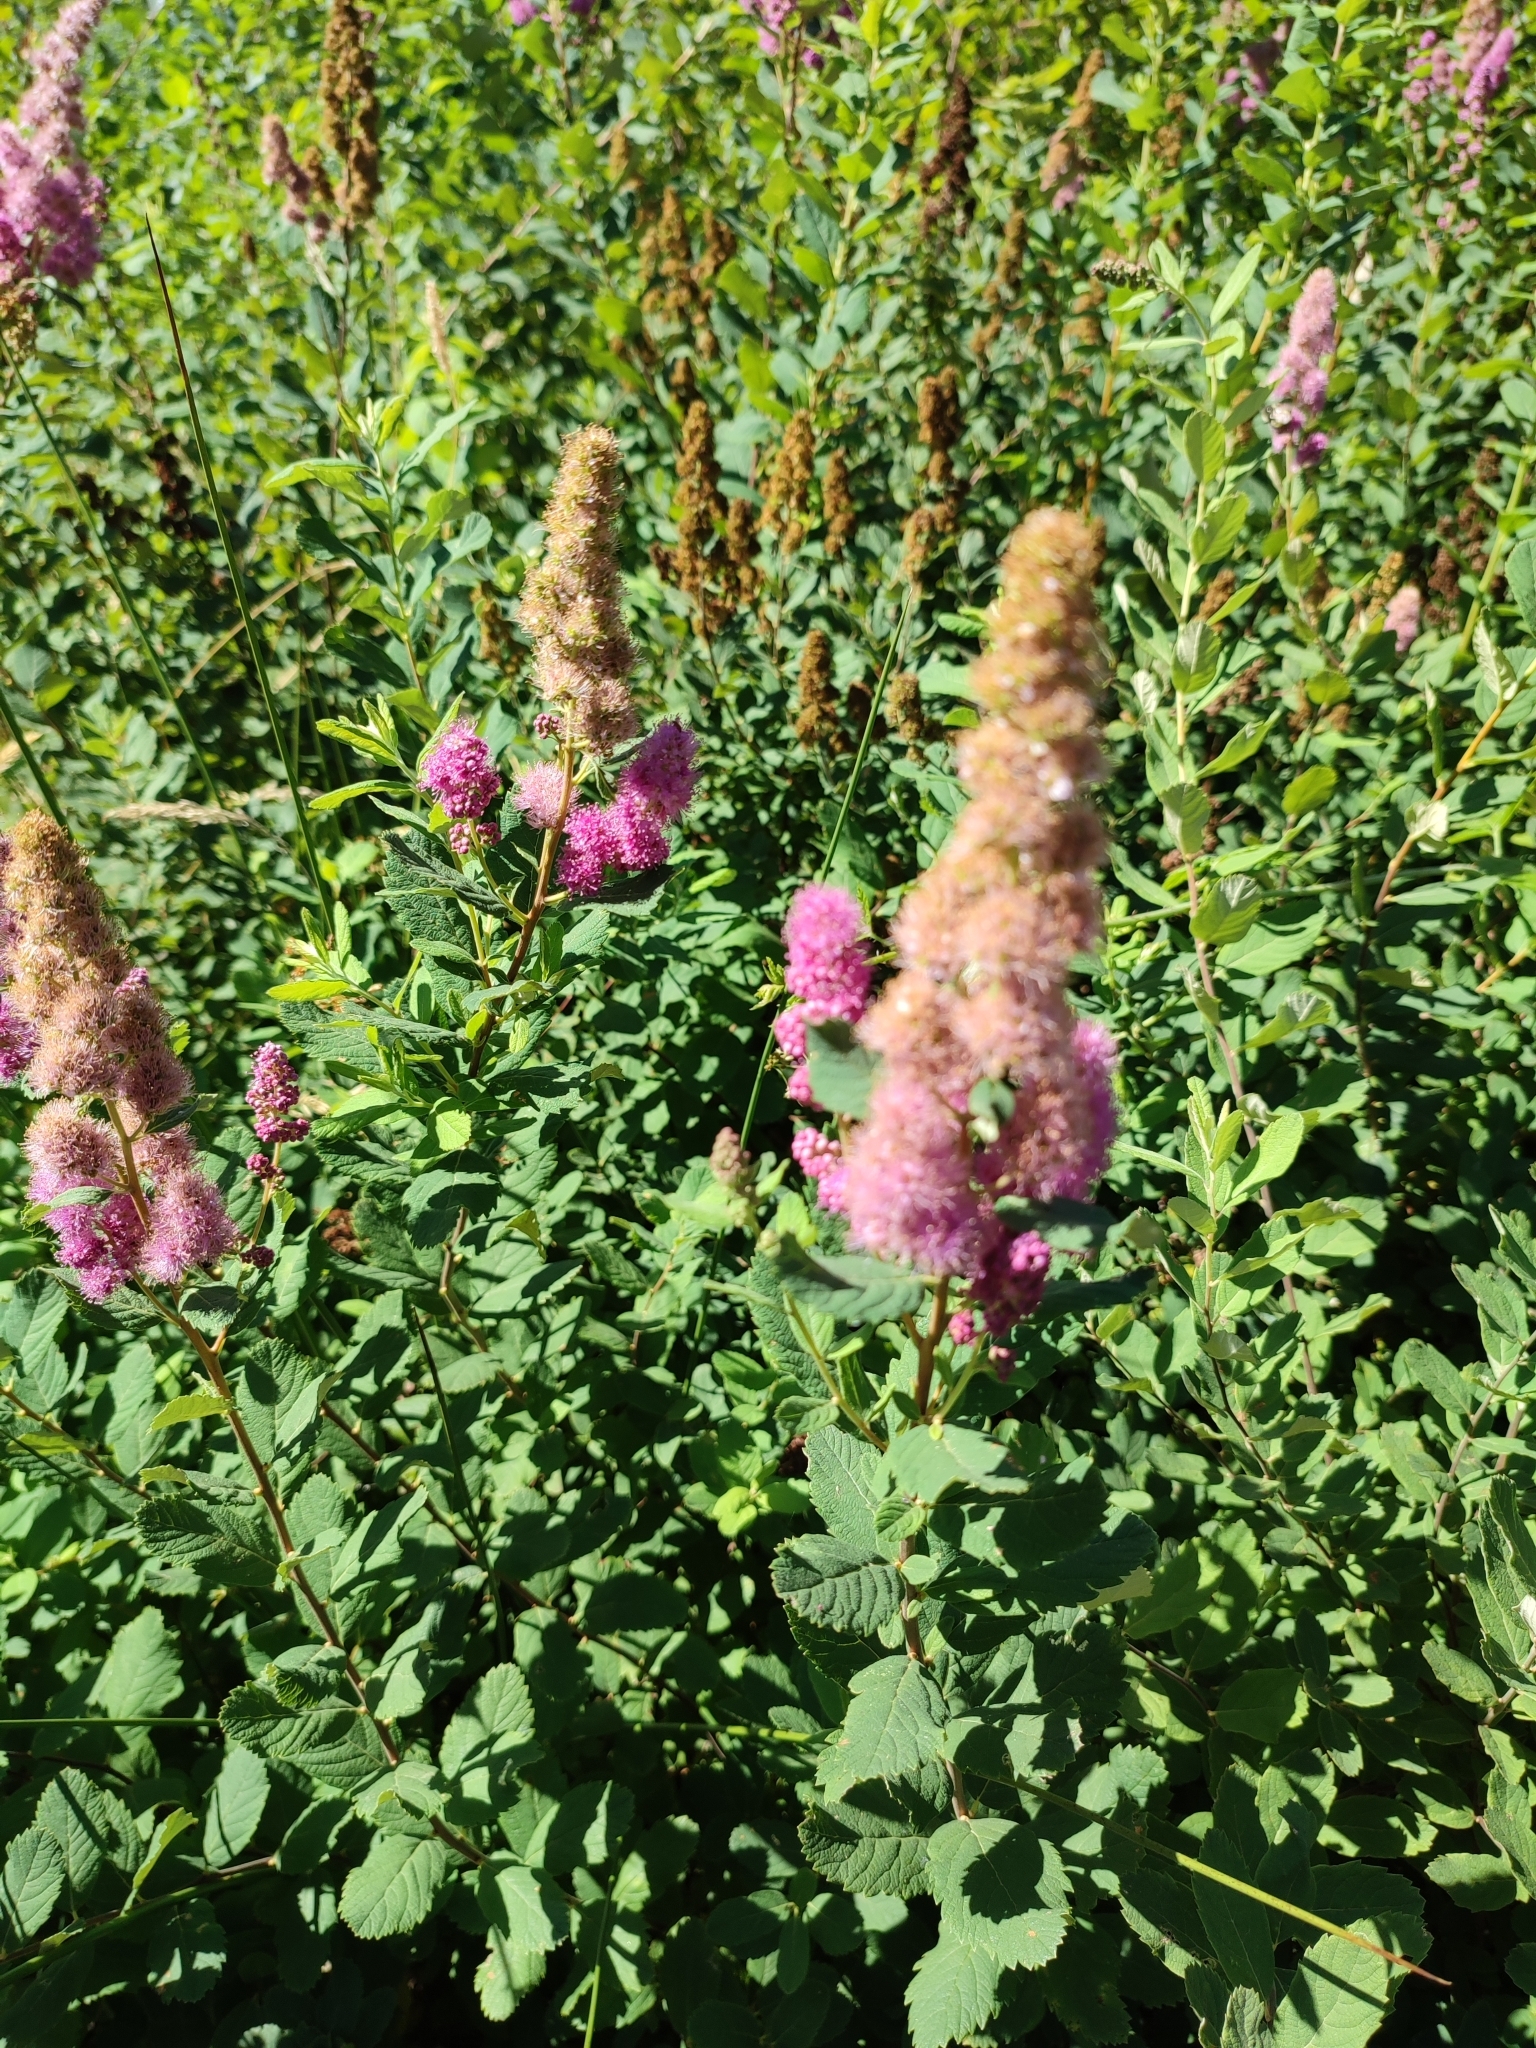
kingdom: Plantae
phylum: Tracheophyta
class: Magnoliopsida
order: Rosales
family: Rosaceae
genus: Spiraea
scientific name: Spiraea douglasii
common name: Steeplebush
